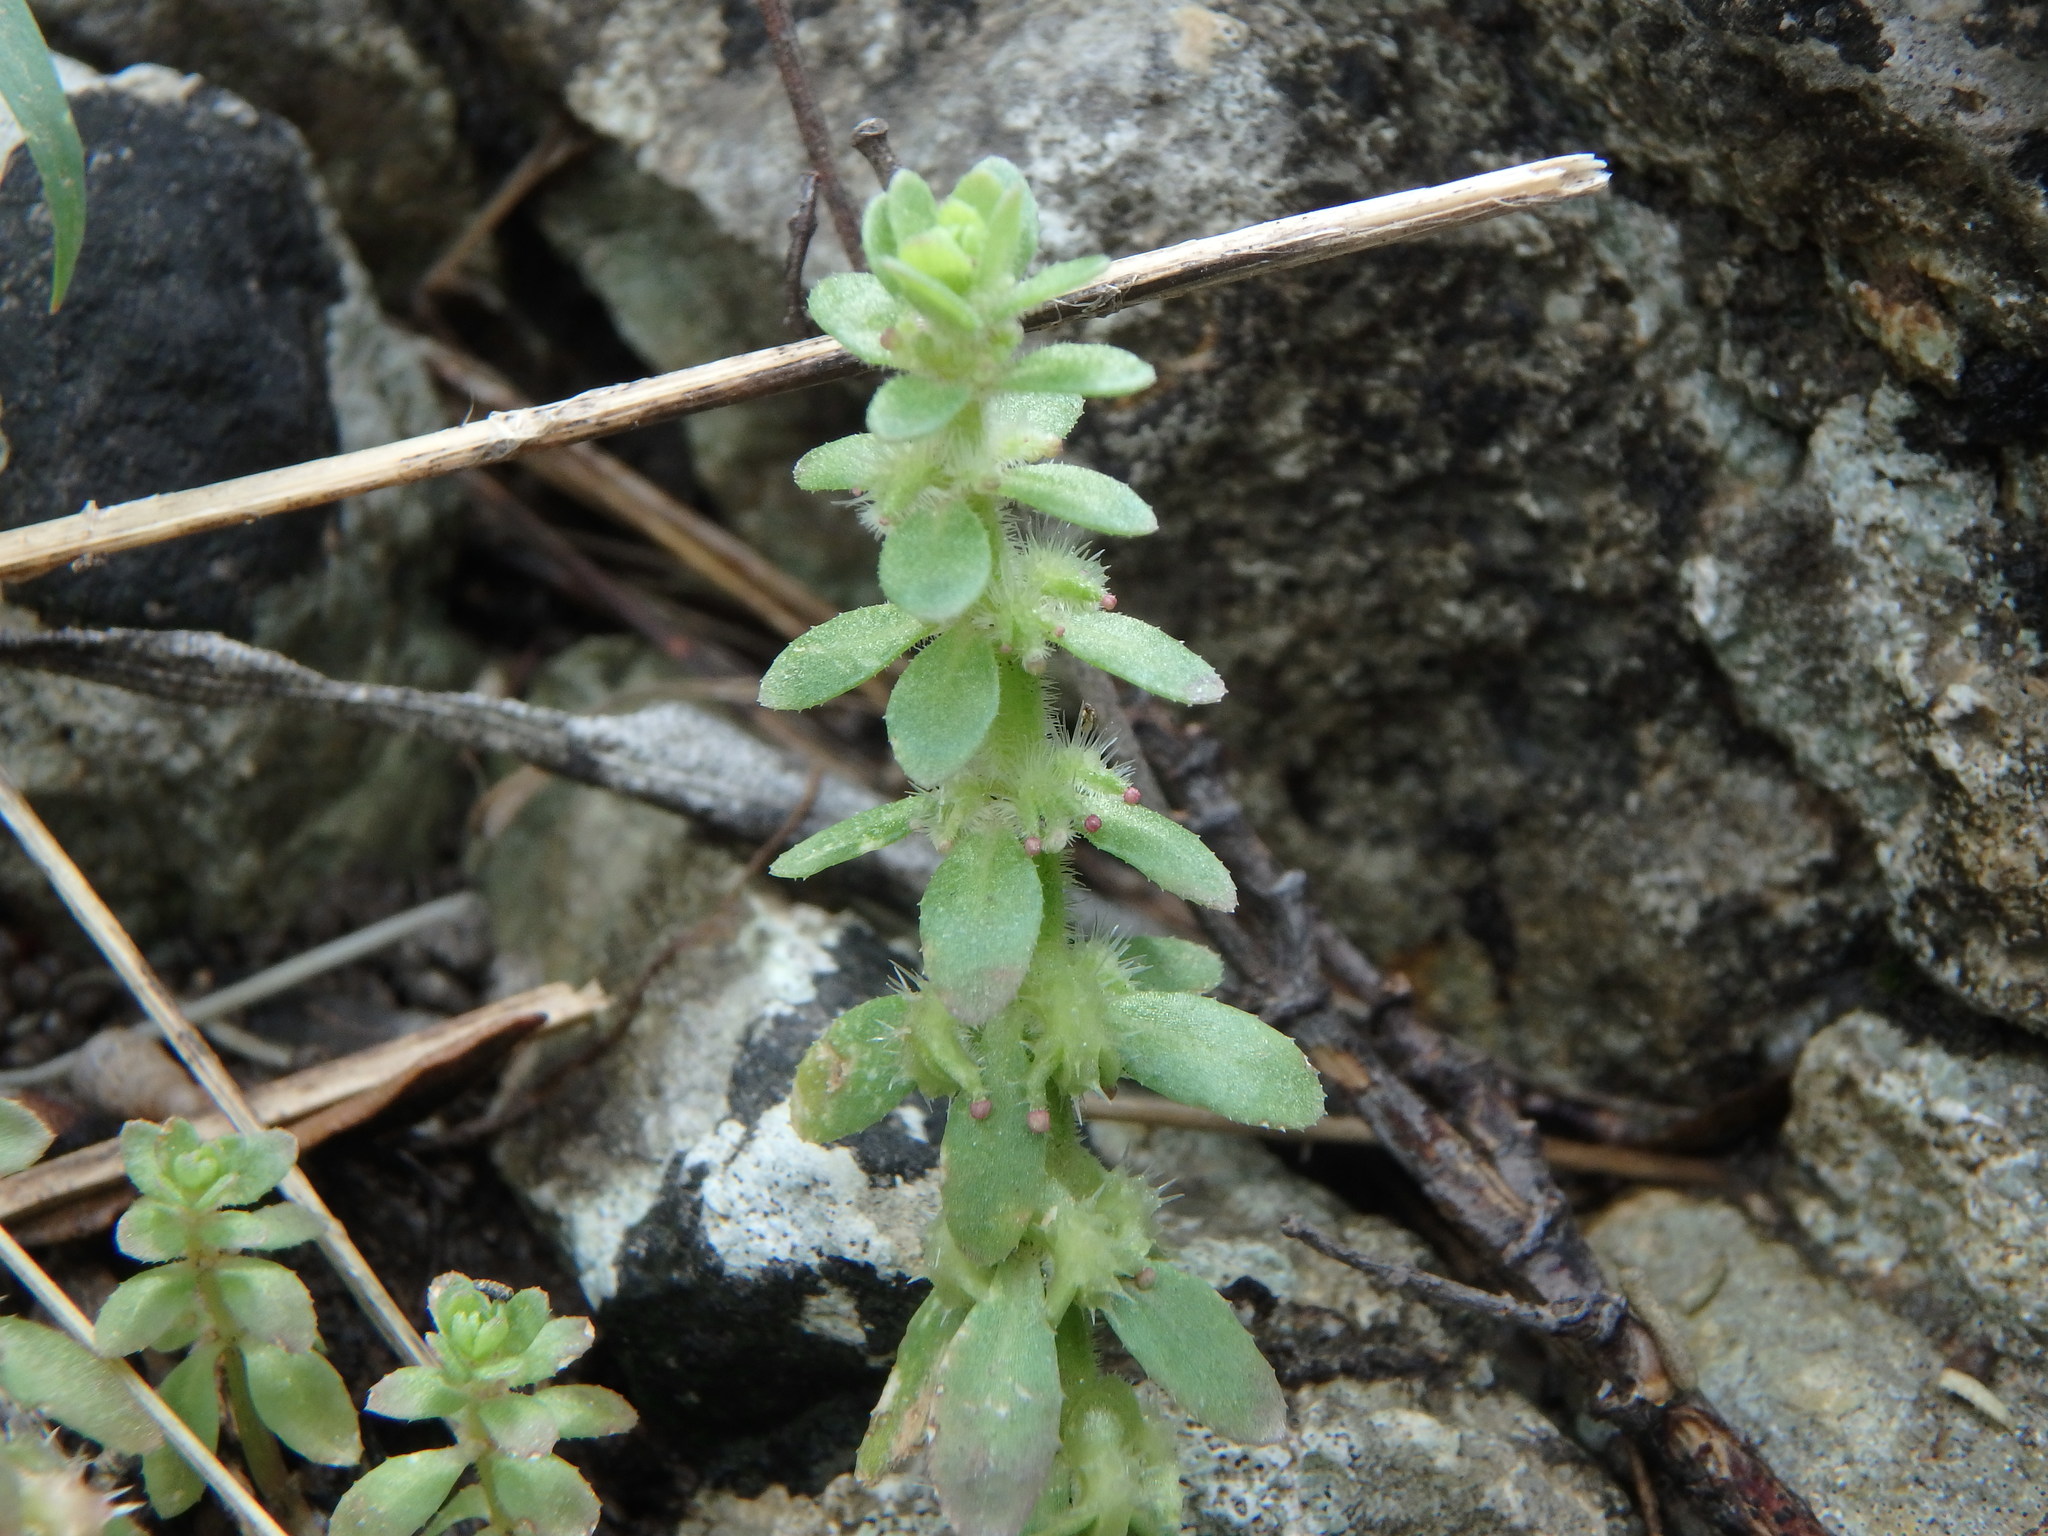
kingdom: Plantae
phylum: Tracheophyta
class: Magnoliopsida
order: Gentianales
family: Rubiaceae
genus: Valantia
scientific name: Valantia muralis
